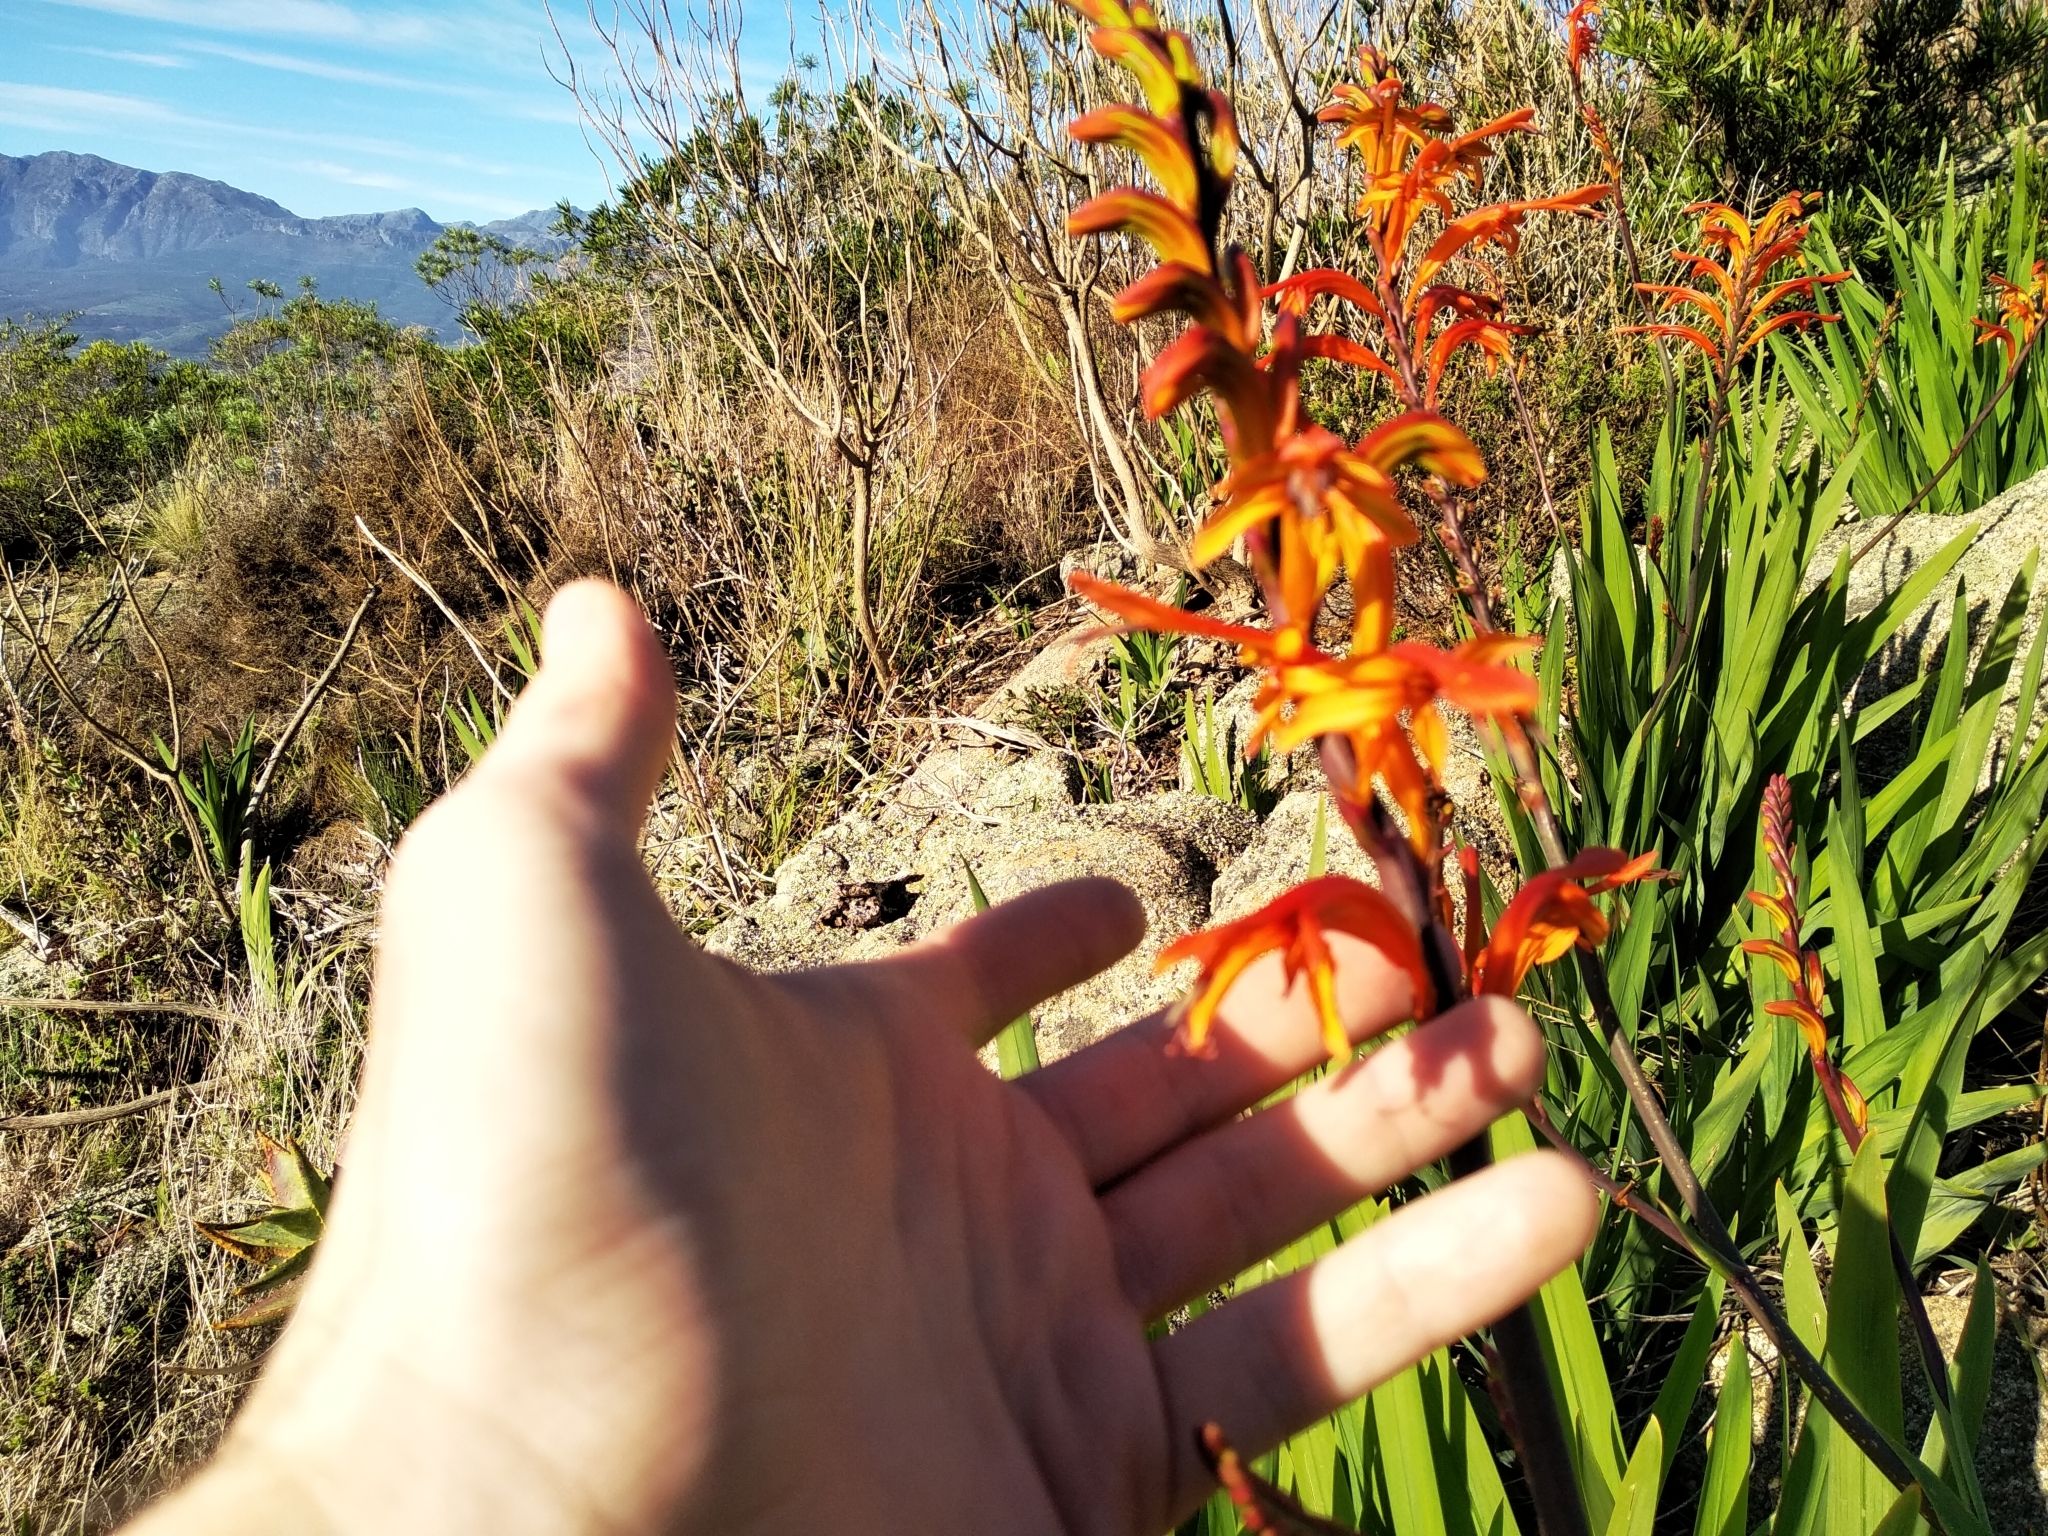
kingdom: Plantae
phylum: Tracheophyta
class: Liliopsida
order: Asparagales
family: Iridaceae
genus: Chasmanthe
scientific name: Chasmanthe floribunda
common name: African cornflag
